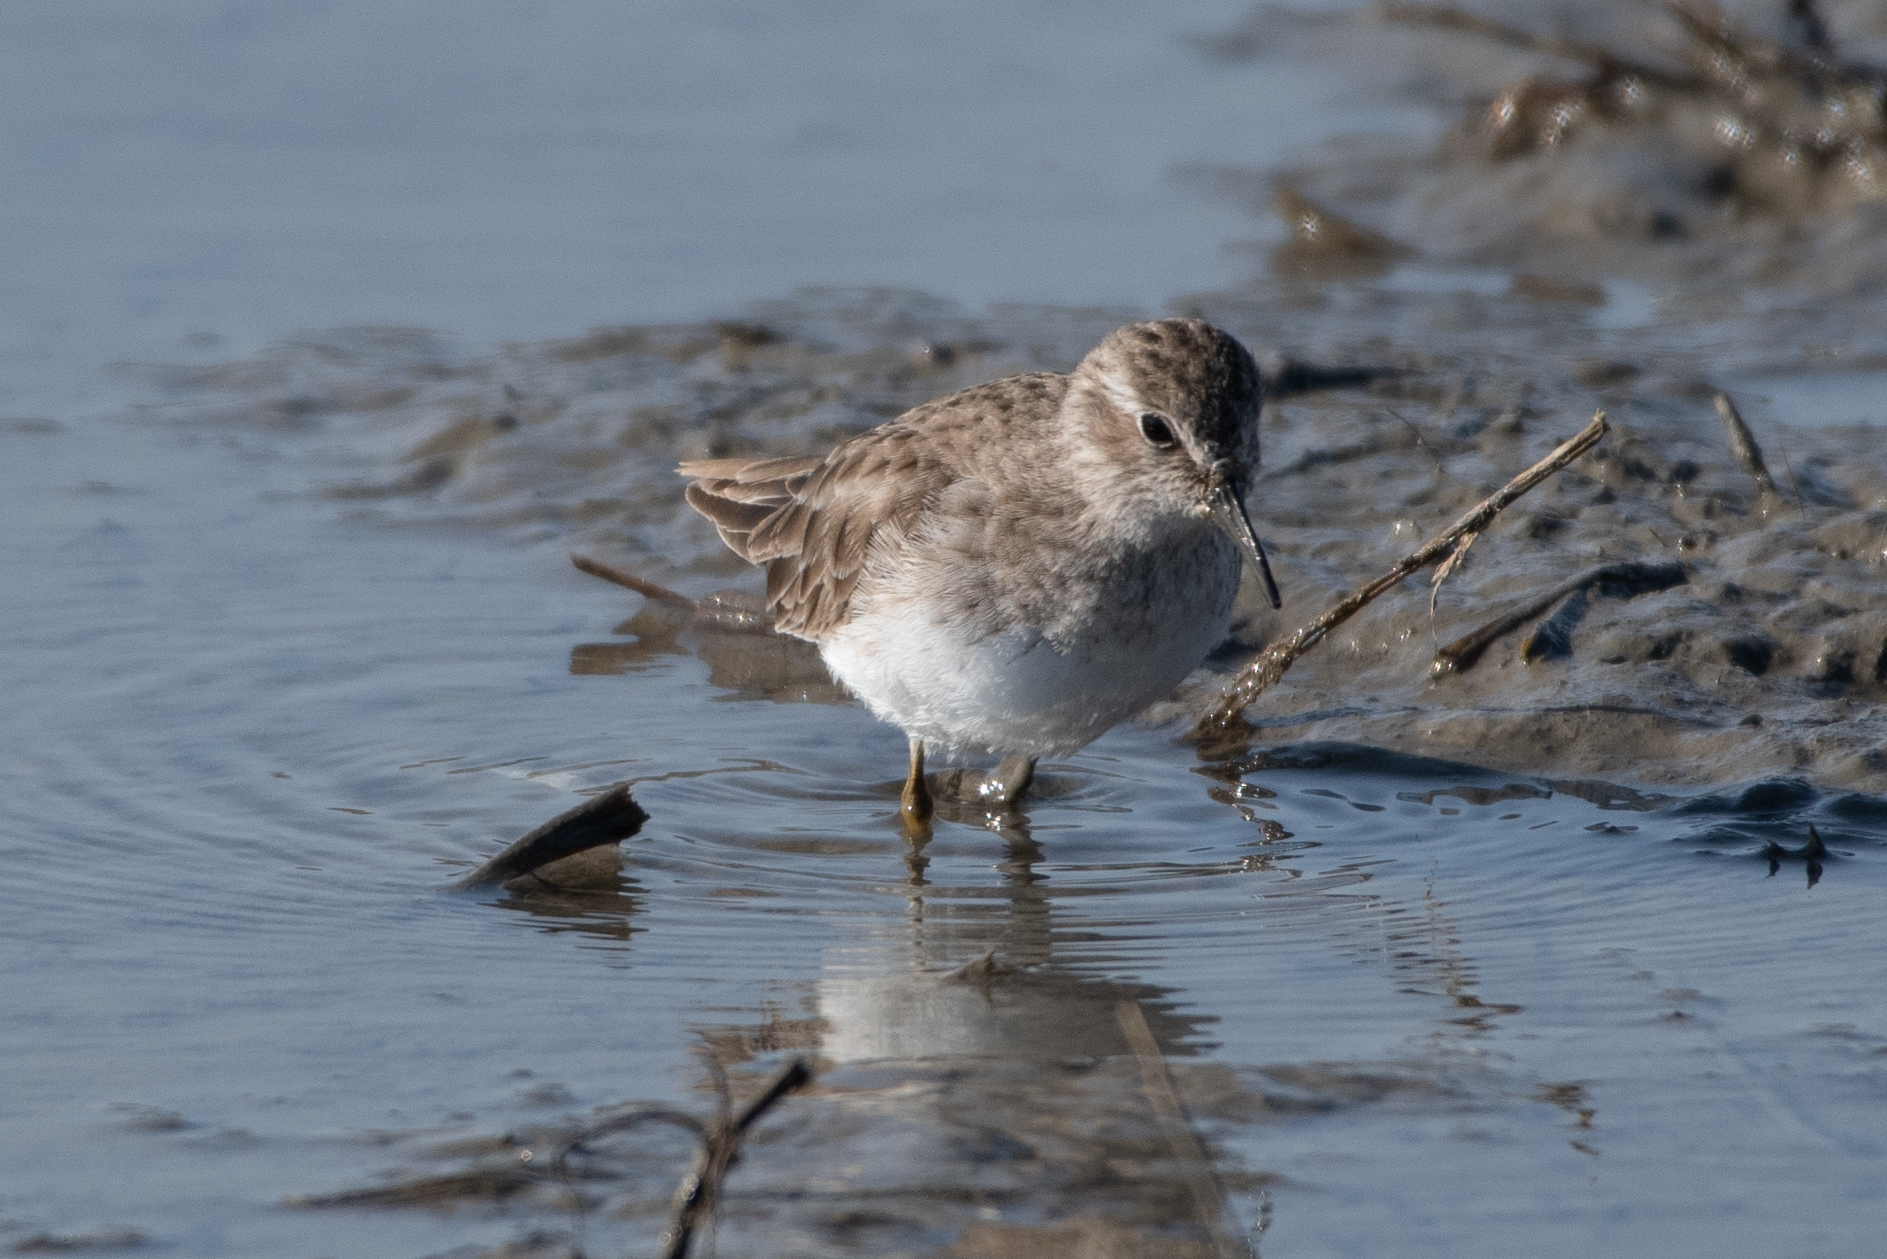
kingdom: Animalia
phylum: Chordata
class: Aves
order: Charadriiformes
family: Scolopacidae
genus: Calidris
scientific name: Calidris minutilla
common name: Least sandpiper
